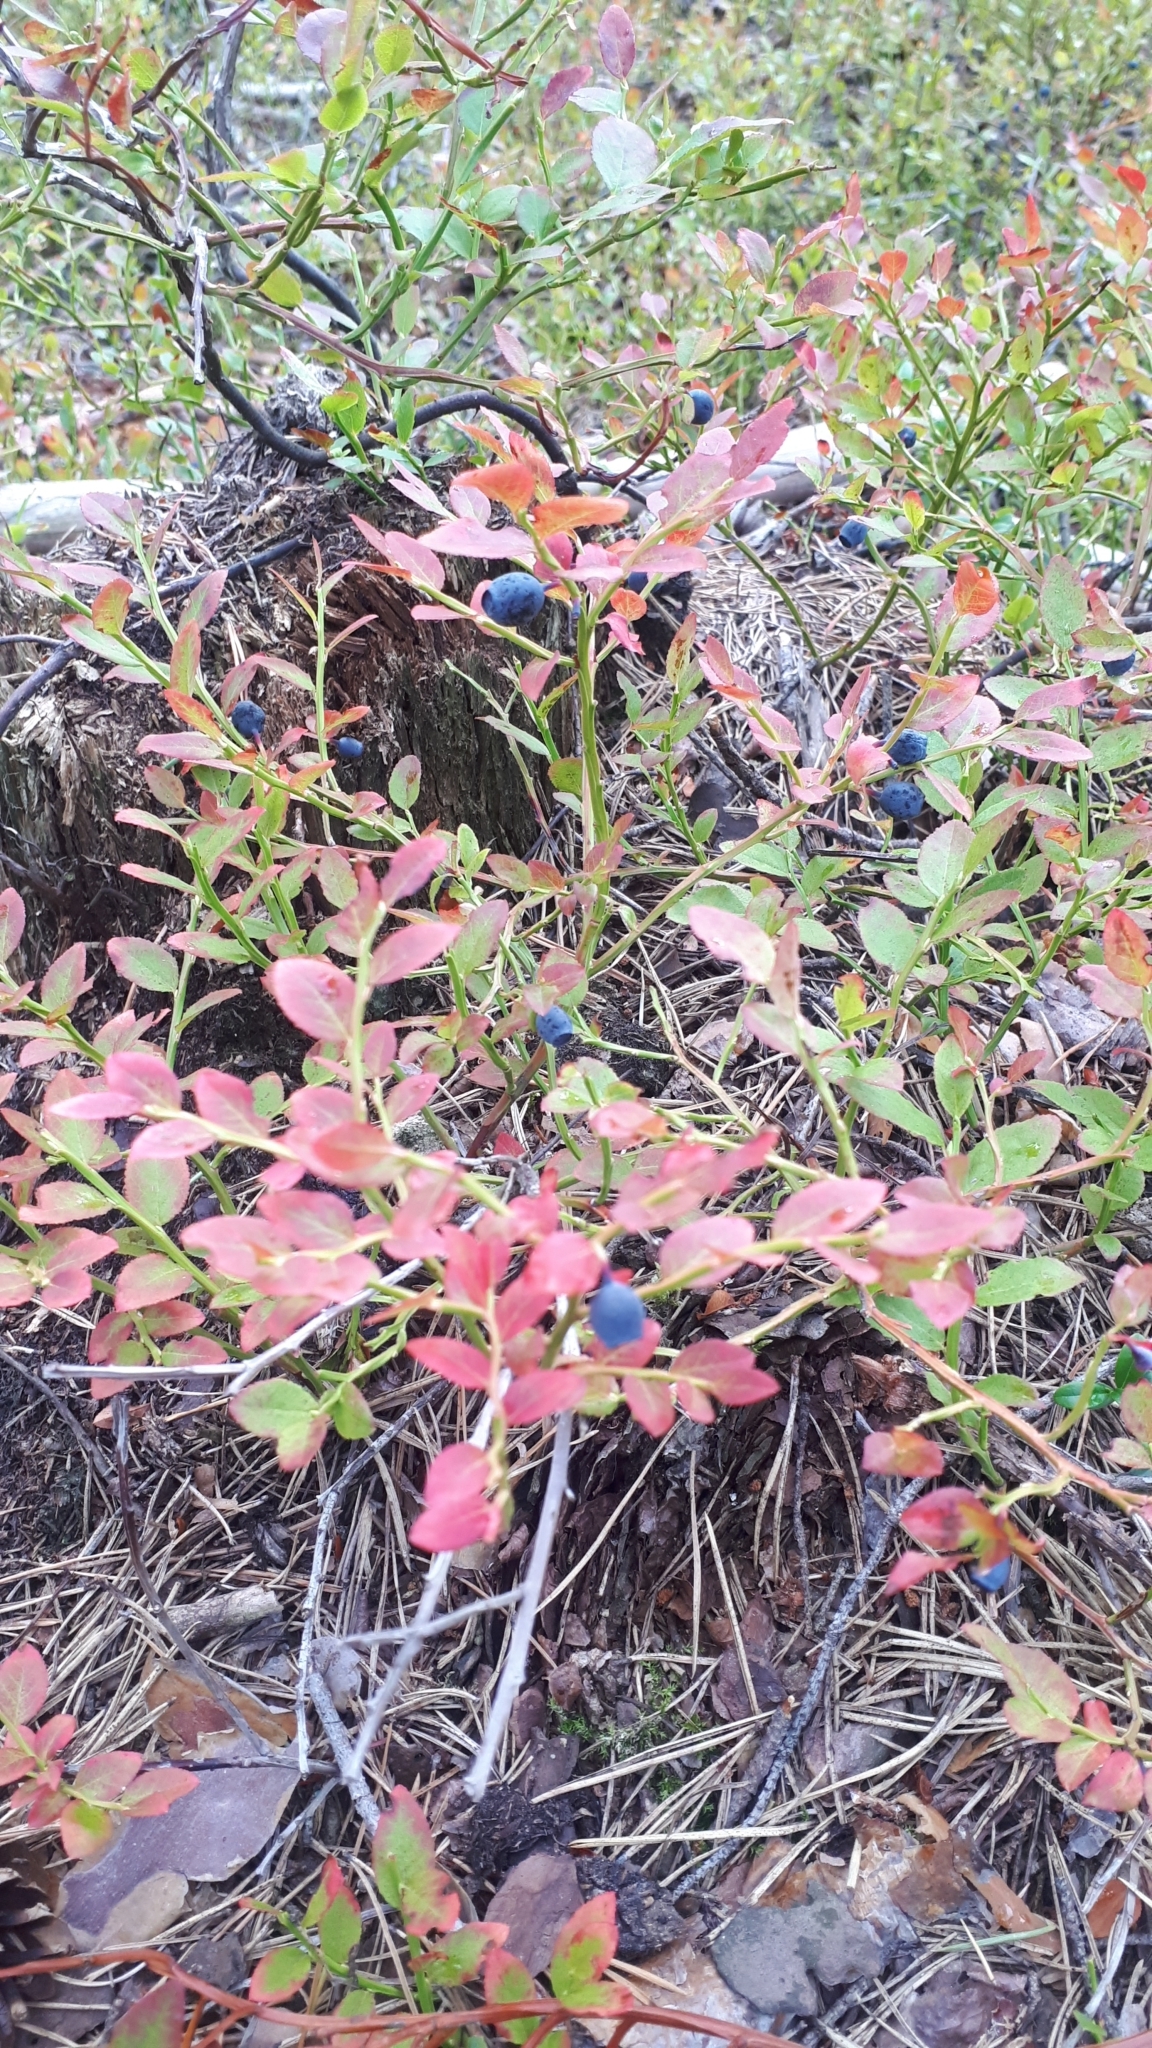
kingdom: Plantae
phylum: Tracheophyta
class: Magnoliopsida
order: Ericales
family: Ericaceae
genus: Vaccinium
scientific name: Vaccinium myrtillus
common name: Bilberry
